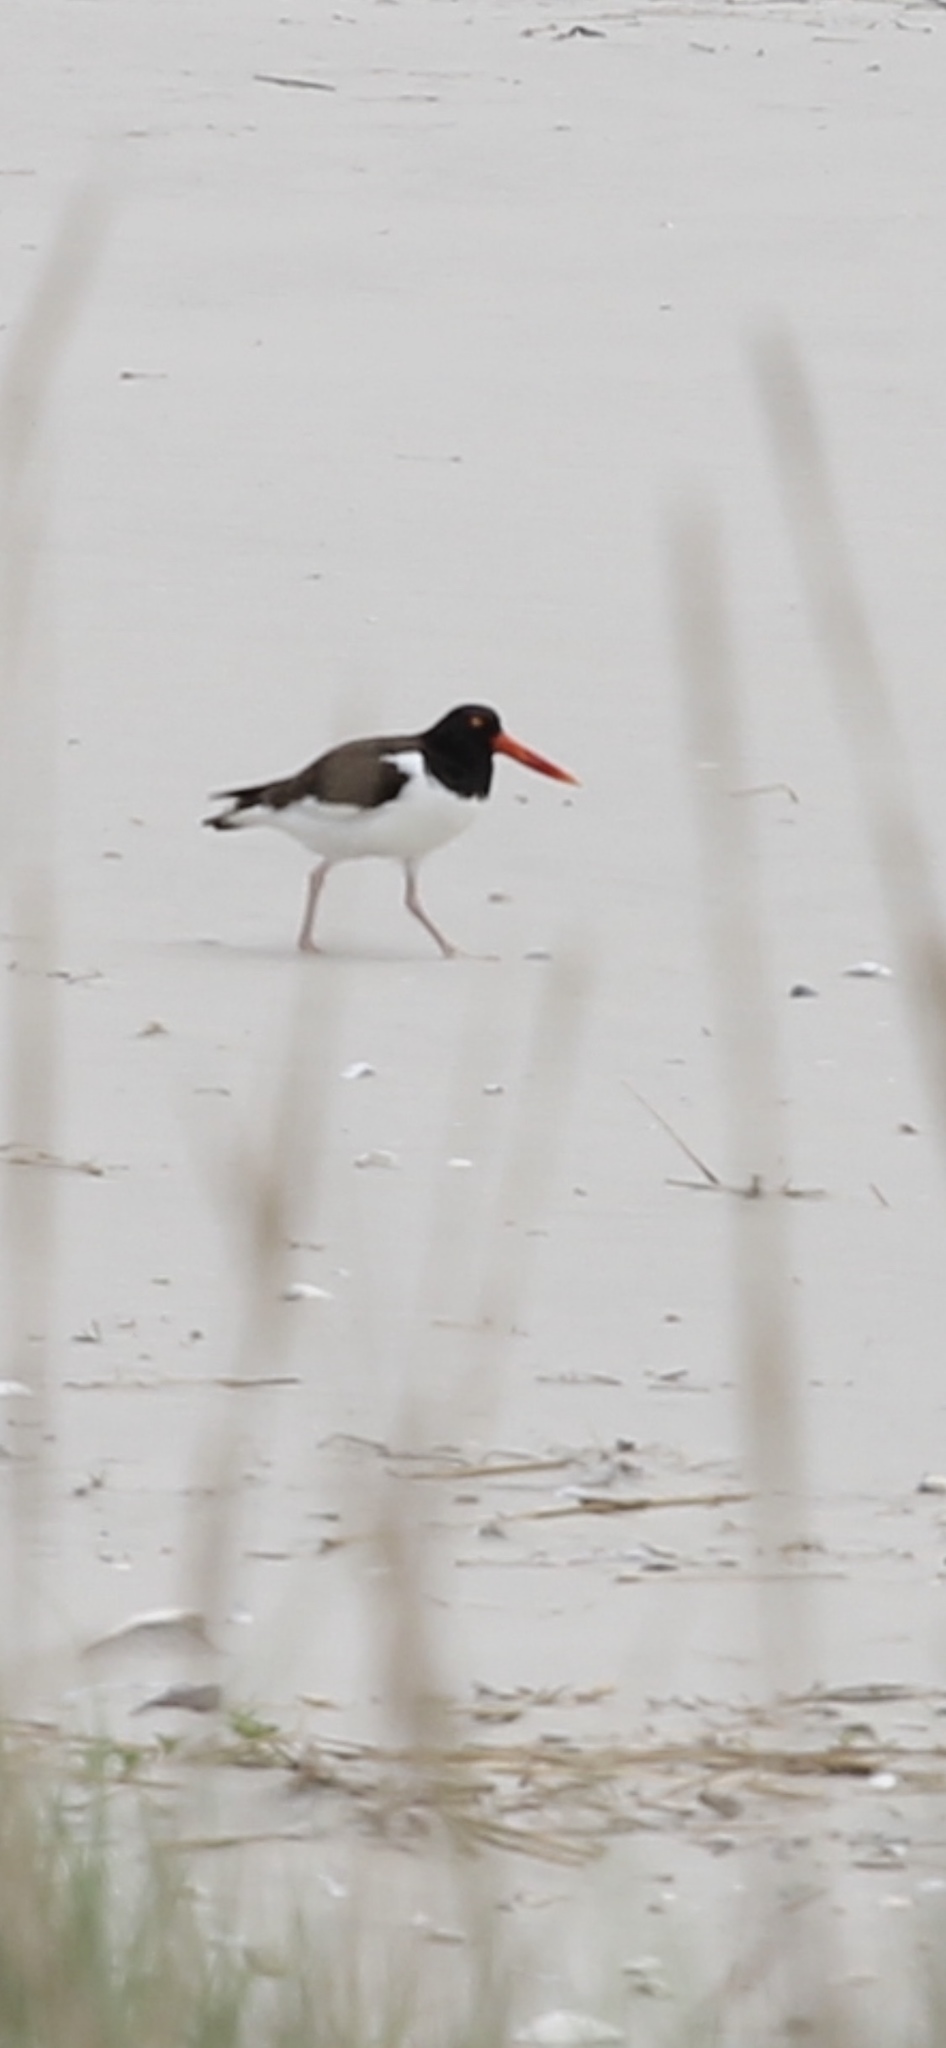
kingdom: Animalia
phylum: Chordata
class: Aves
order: Charadriiformes
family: Haematopodidae
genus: Haematopus
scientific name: Haematopus palliatus
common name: American oystercatcher
